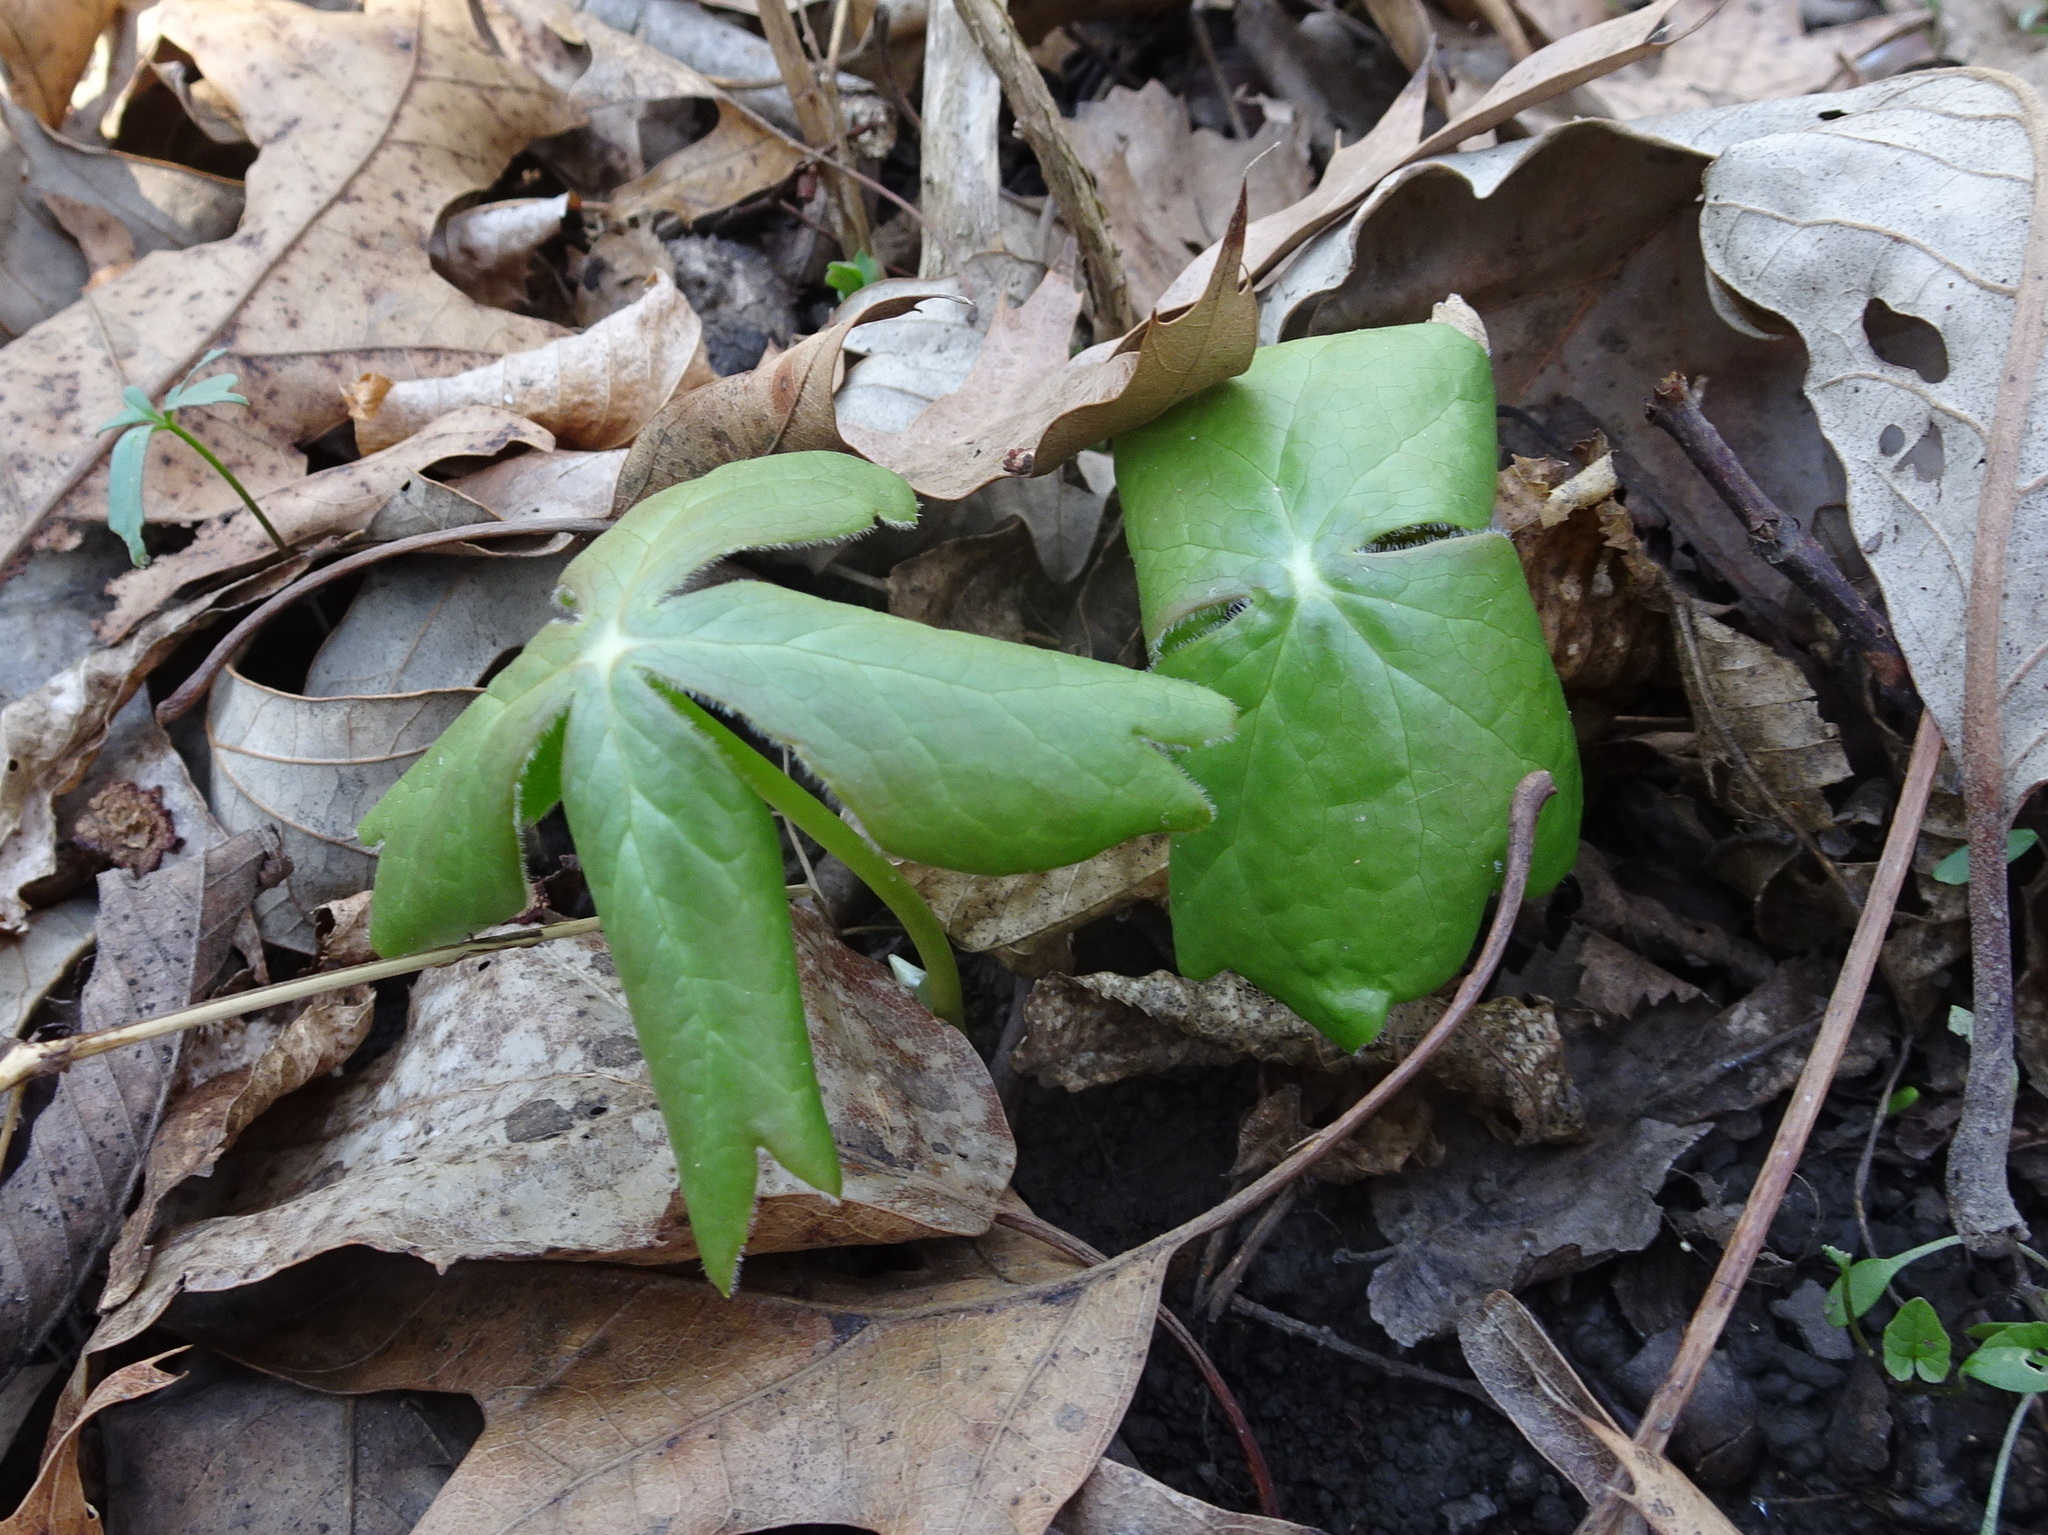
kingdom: Plantae
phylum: Tracheophyta
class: Magnoliopsida
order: Ranunculales
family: Berberidaceae
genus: Podophyllum
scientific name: Podophyllum peltatum
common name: Wild mandrake
